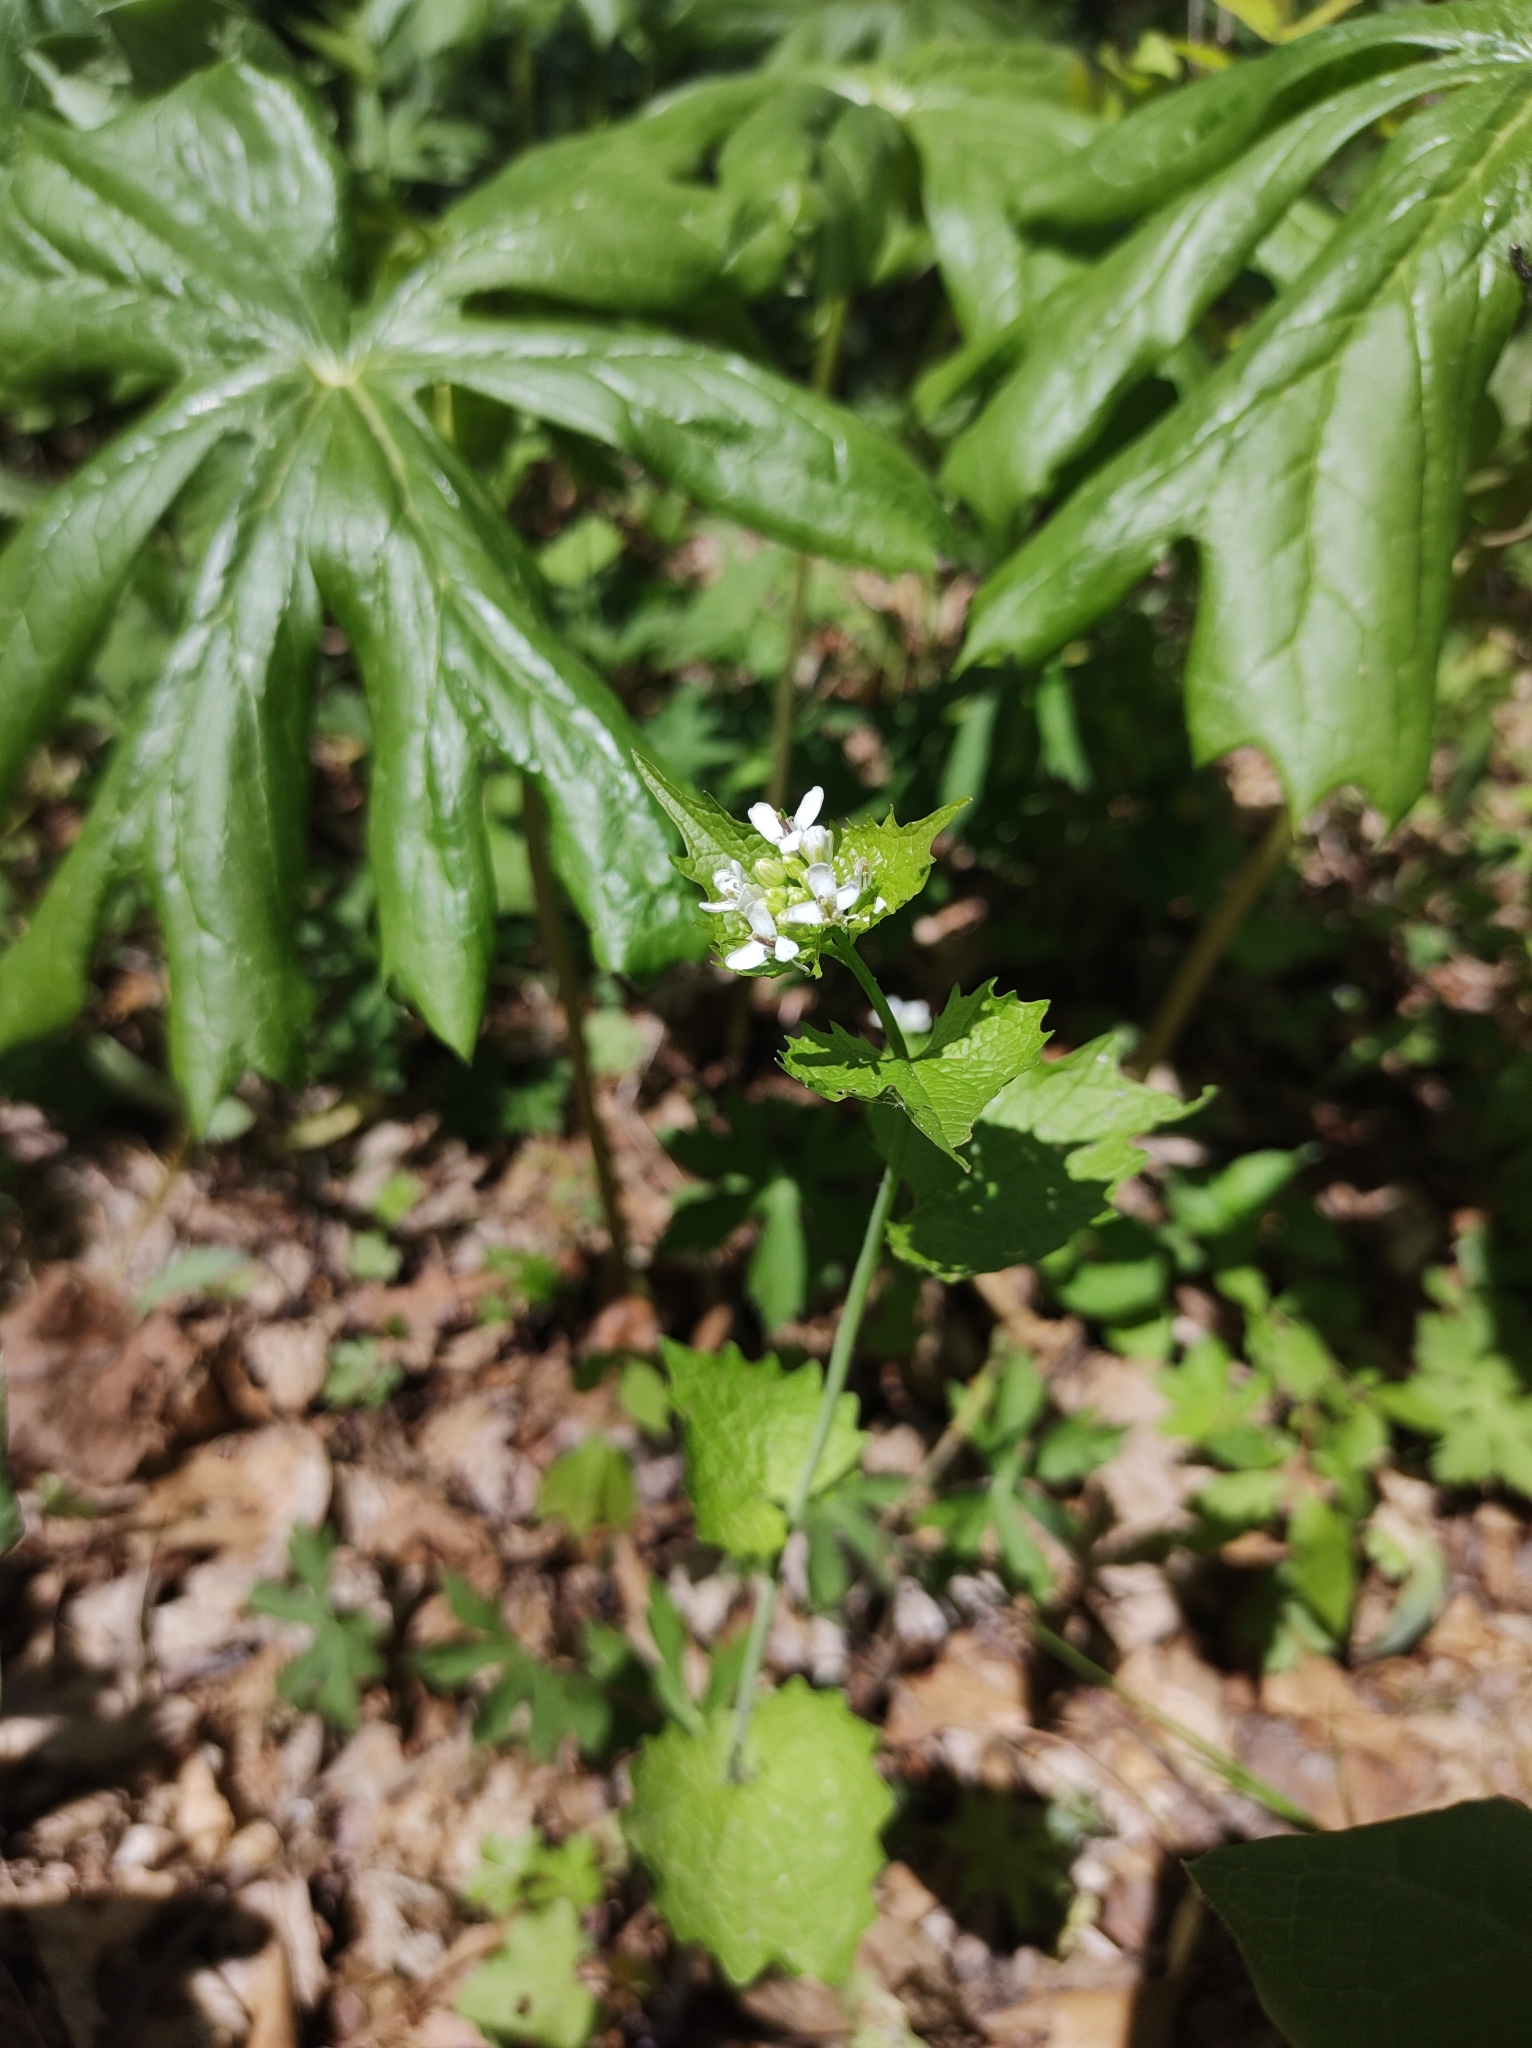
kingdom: Plantae
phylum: Tracheophyta
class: Magnoliopsida
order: Brassicales
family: Brassicaceae
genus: Alliaria
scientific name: Alliaria petiolata
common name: Garlic mustard
